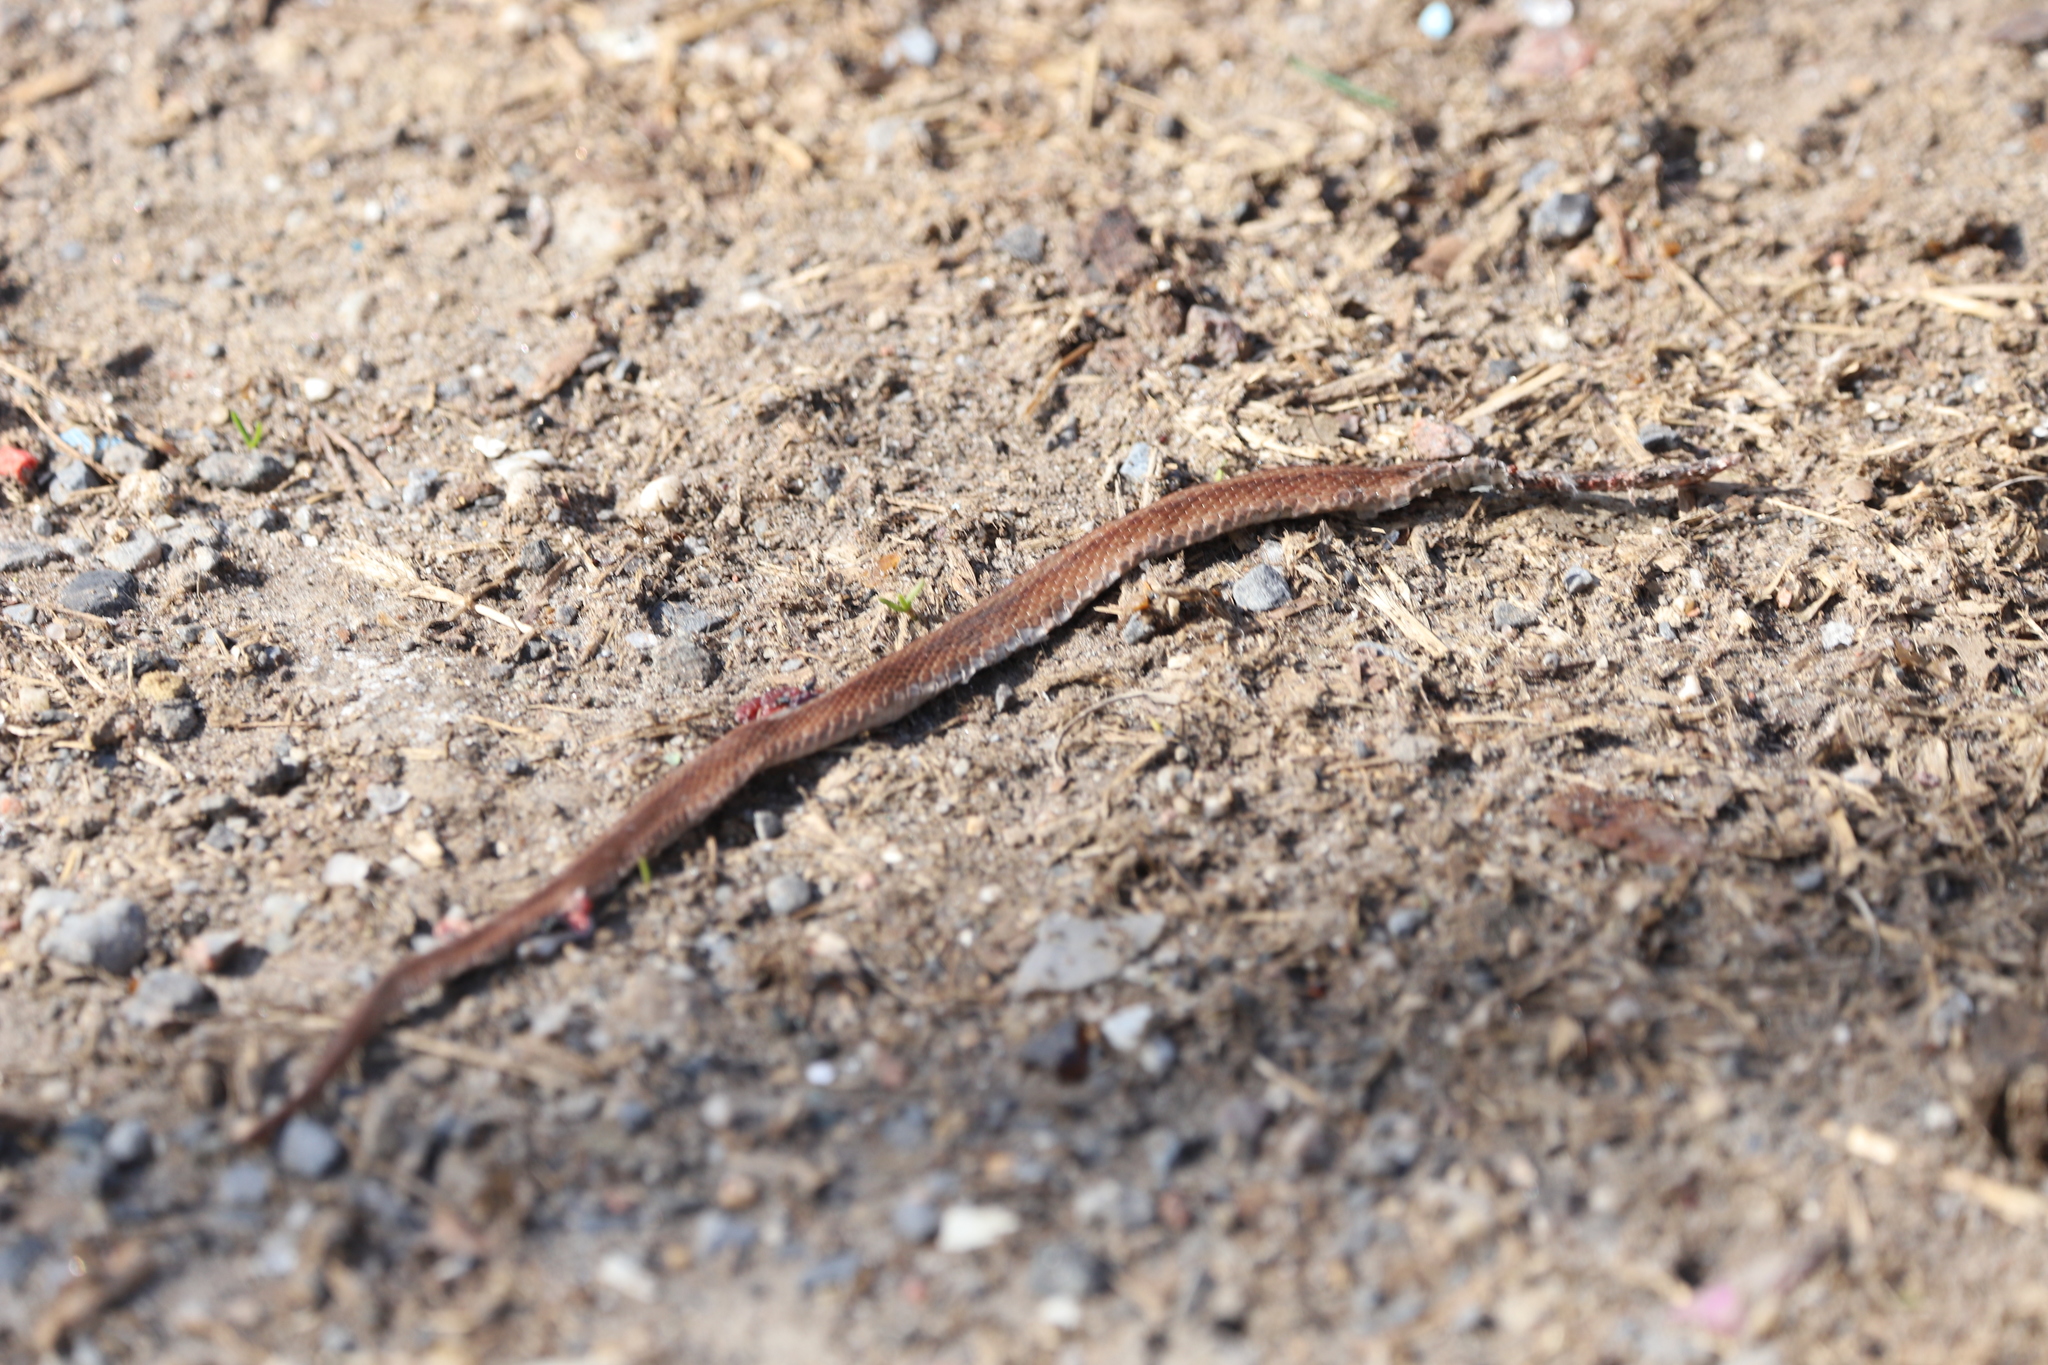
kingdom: Animalia
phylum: Chordata
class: Squamata
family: Colubridae
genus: Storeria
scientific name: Storeria dekayi
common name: (dekay’s) brown snake
